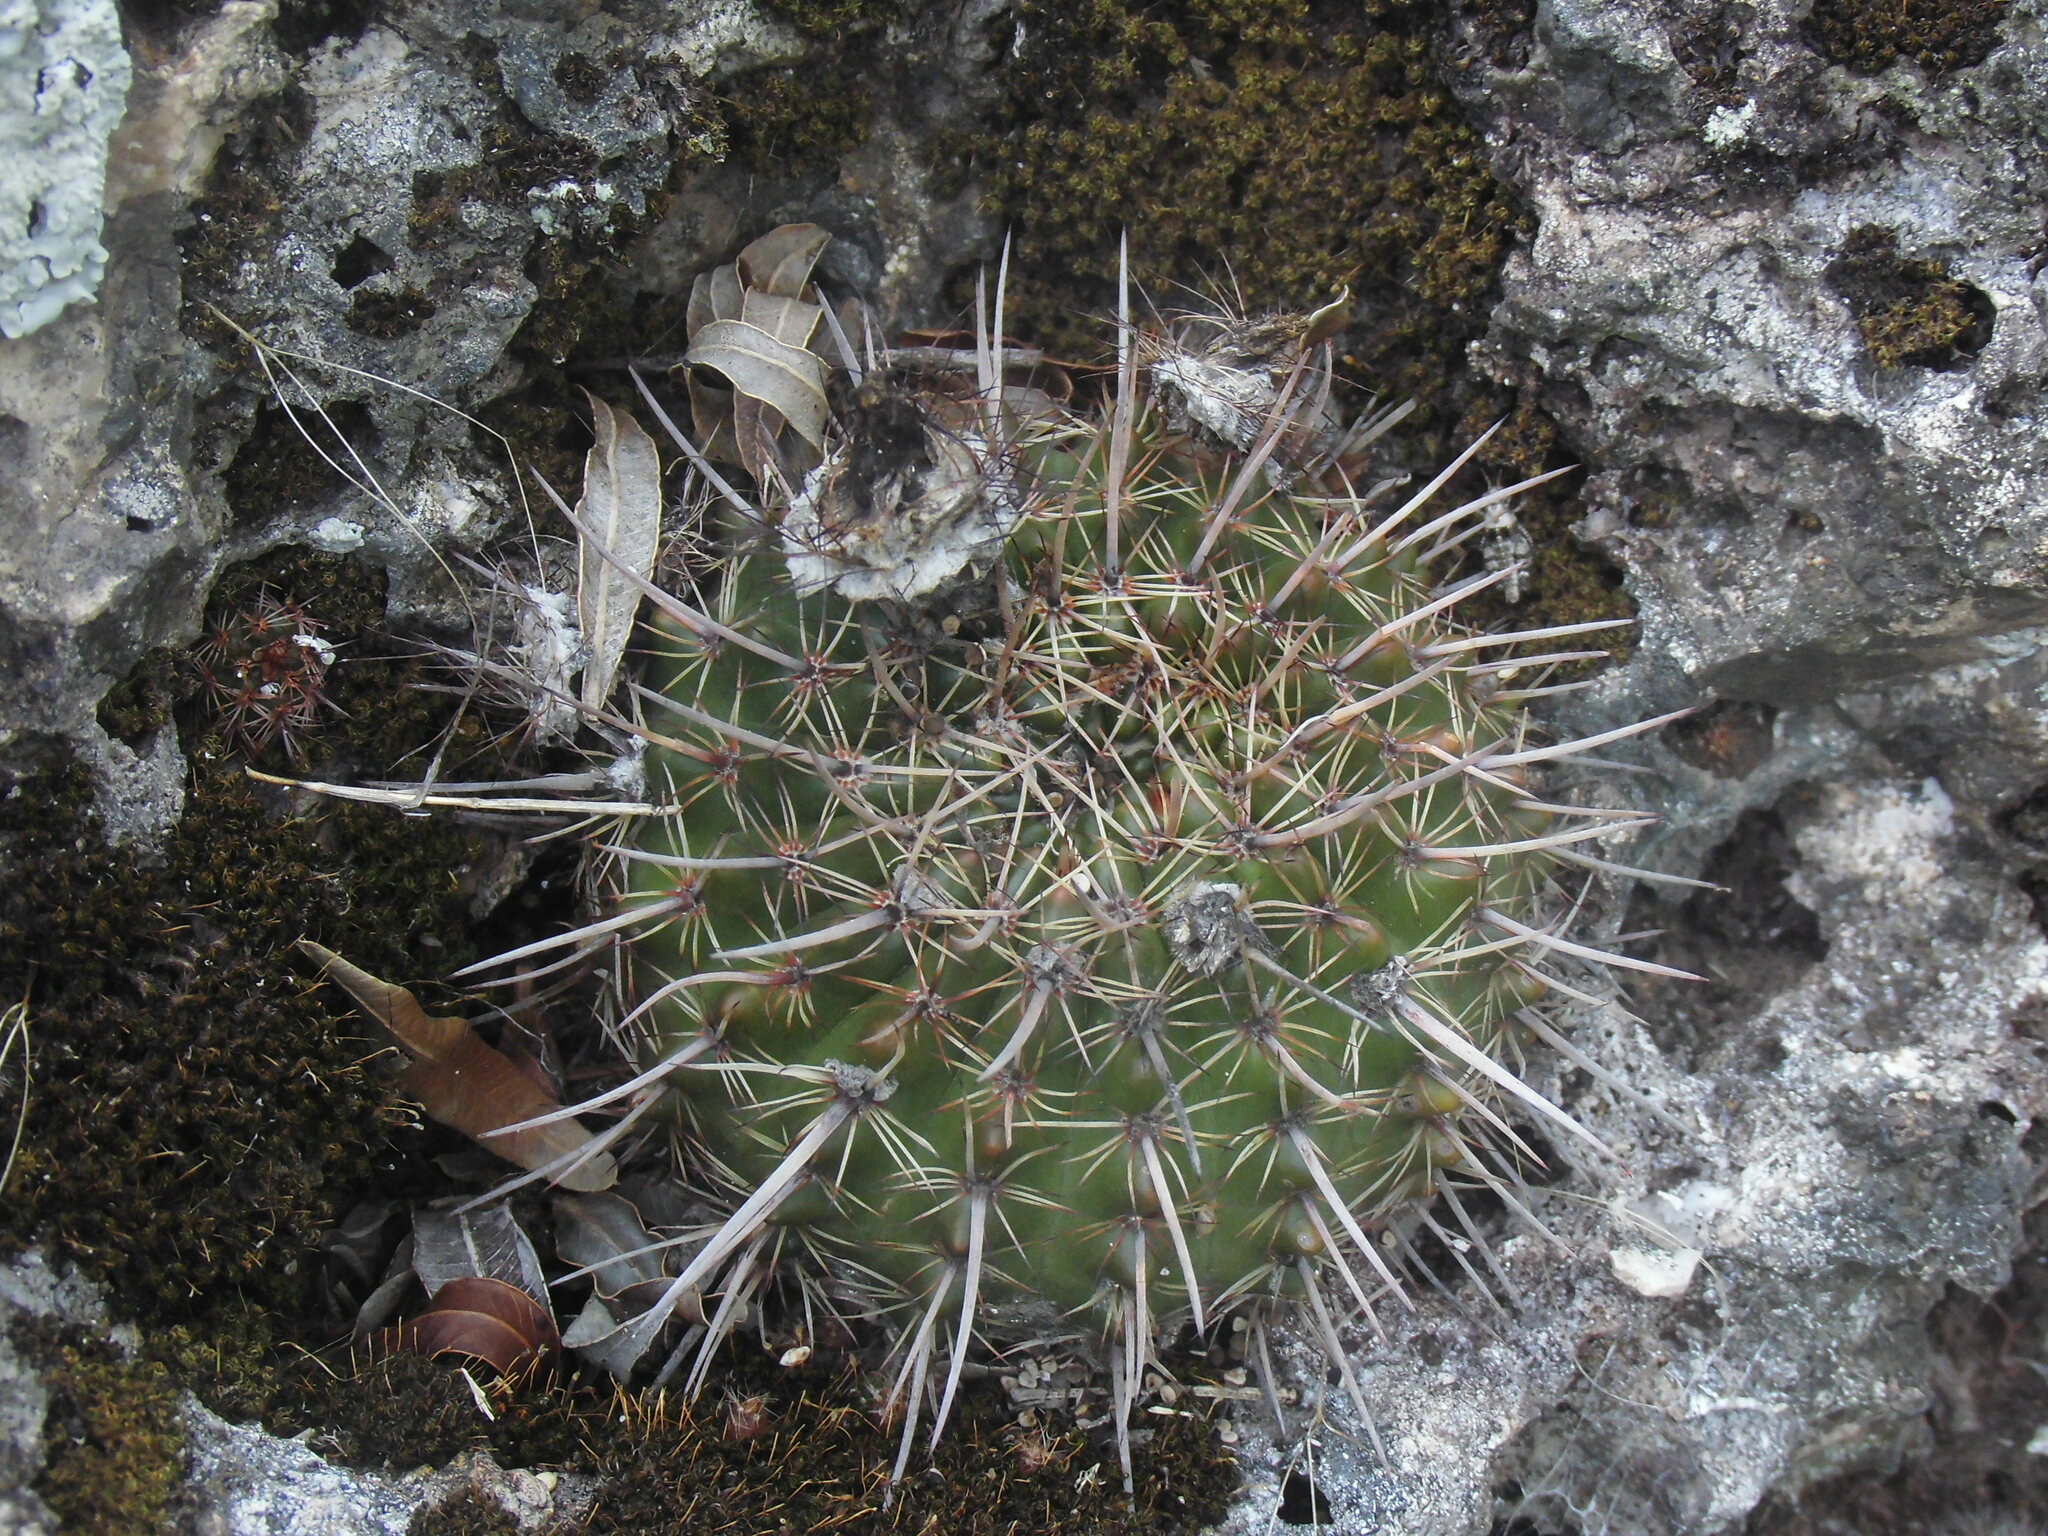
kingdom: Plantae
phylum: Tracheophyta
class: Magnoliopsida
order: Caryophyllales
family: Cactaceae
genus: Parodia
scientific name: Parodia mammulosa
